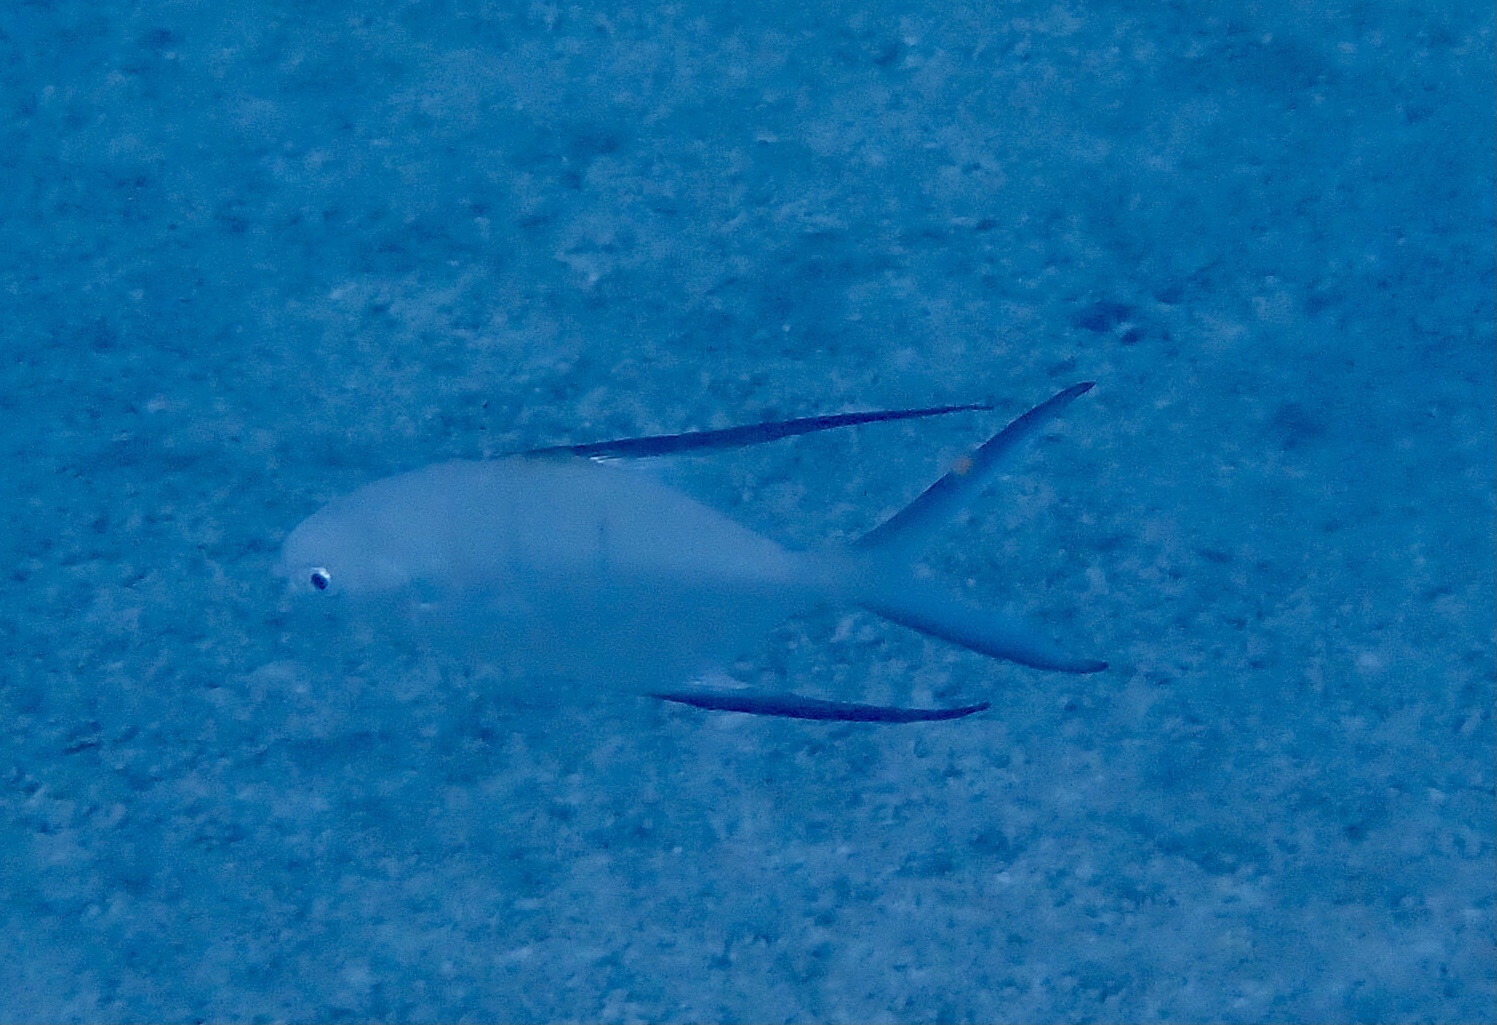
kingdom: Animalia
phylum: Chordata
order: Perciformes
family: Carangidae
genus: Trachinotus
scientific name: Trachinotus goodei
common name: Palometa
